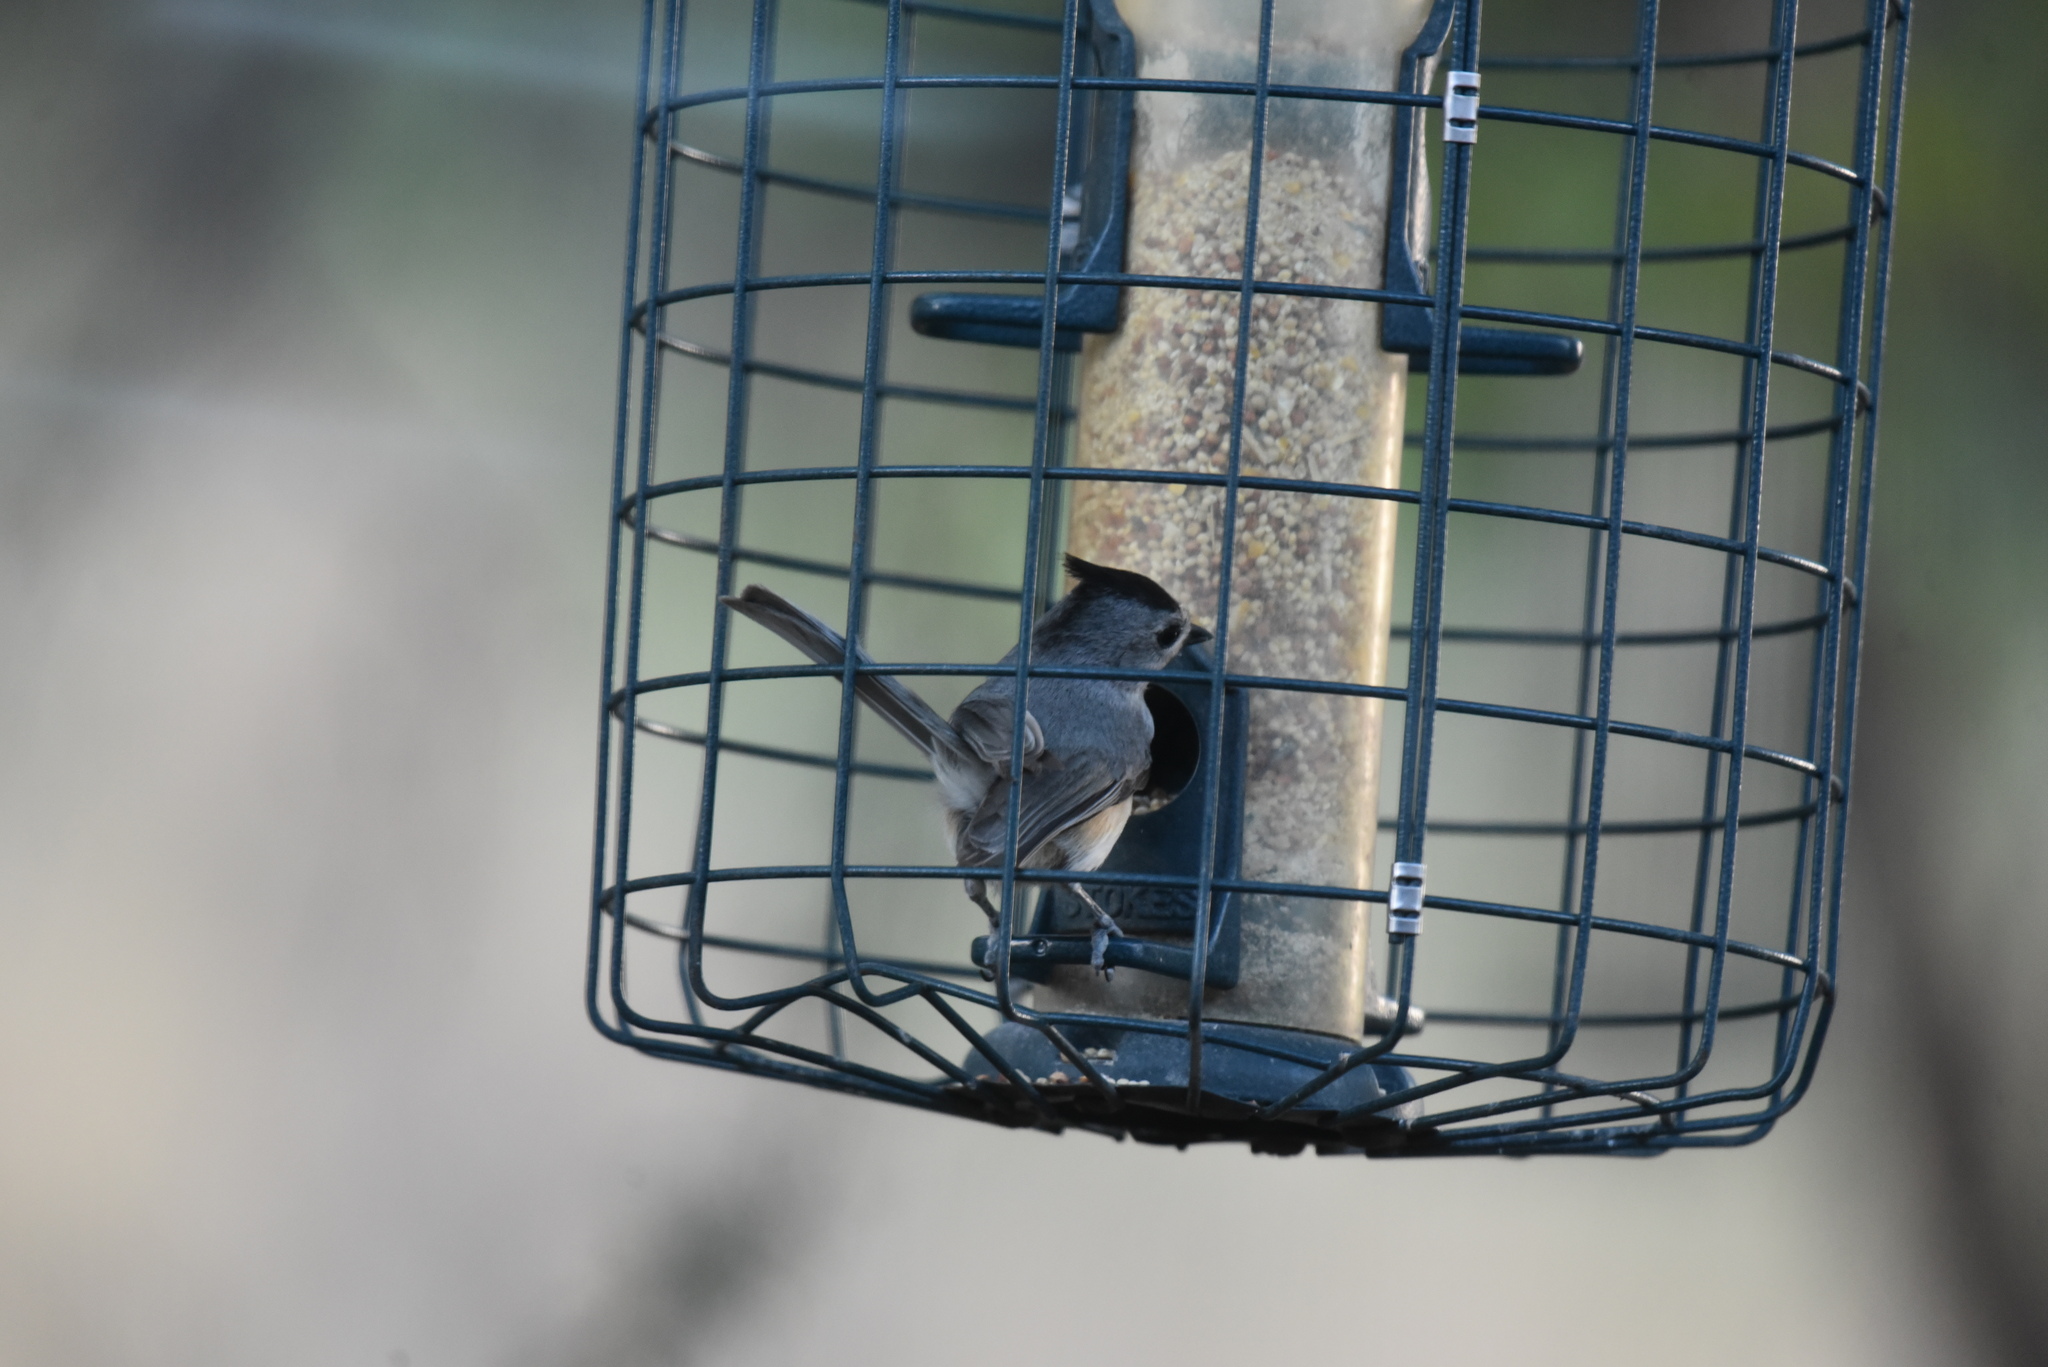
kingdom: Animalia
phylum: Chordata
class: Aves
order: Passeriformes
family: Paridae
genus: Baeolophus
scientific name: Baeolophus atricristatus
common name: Black-crested titmouse
